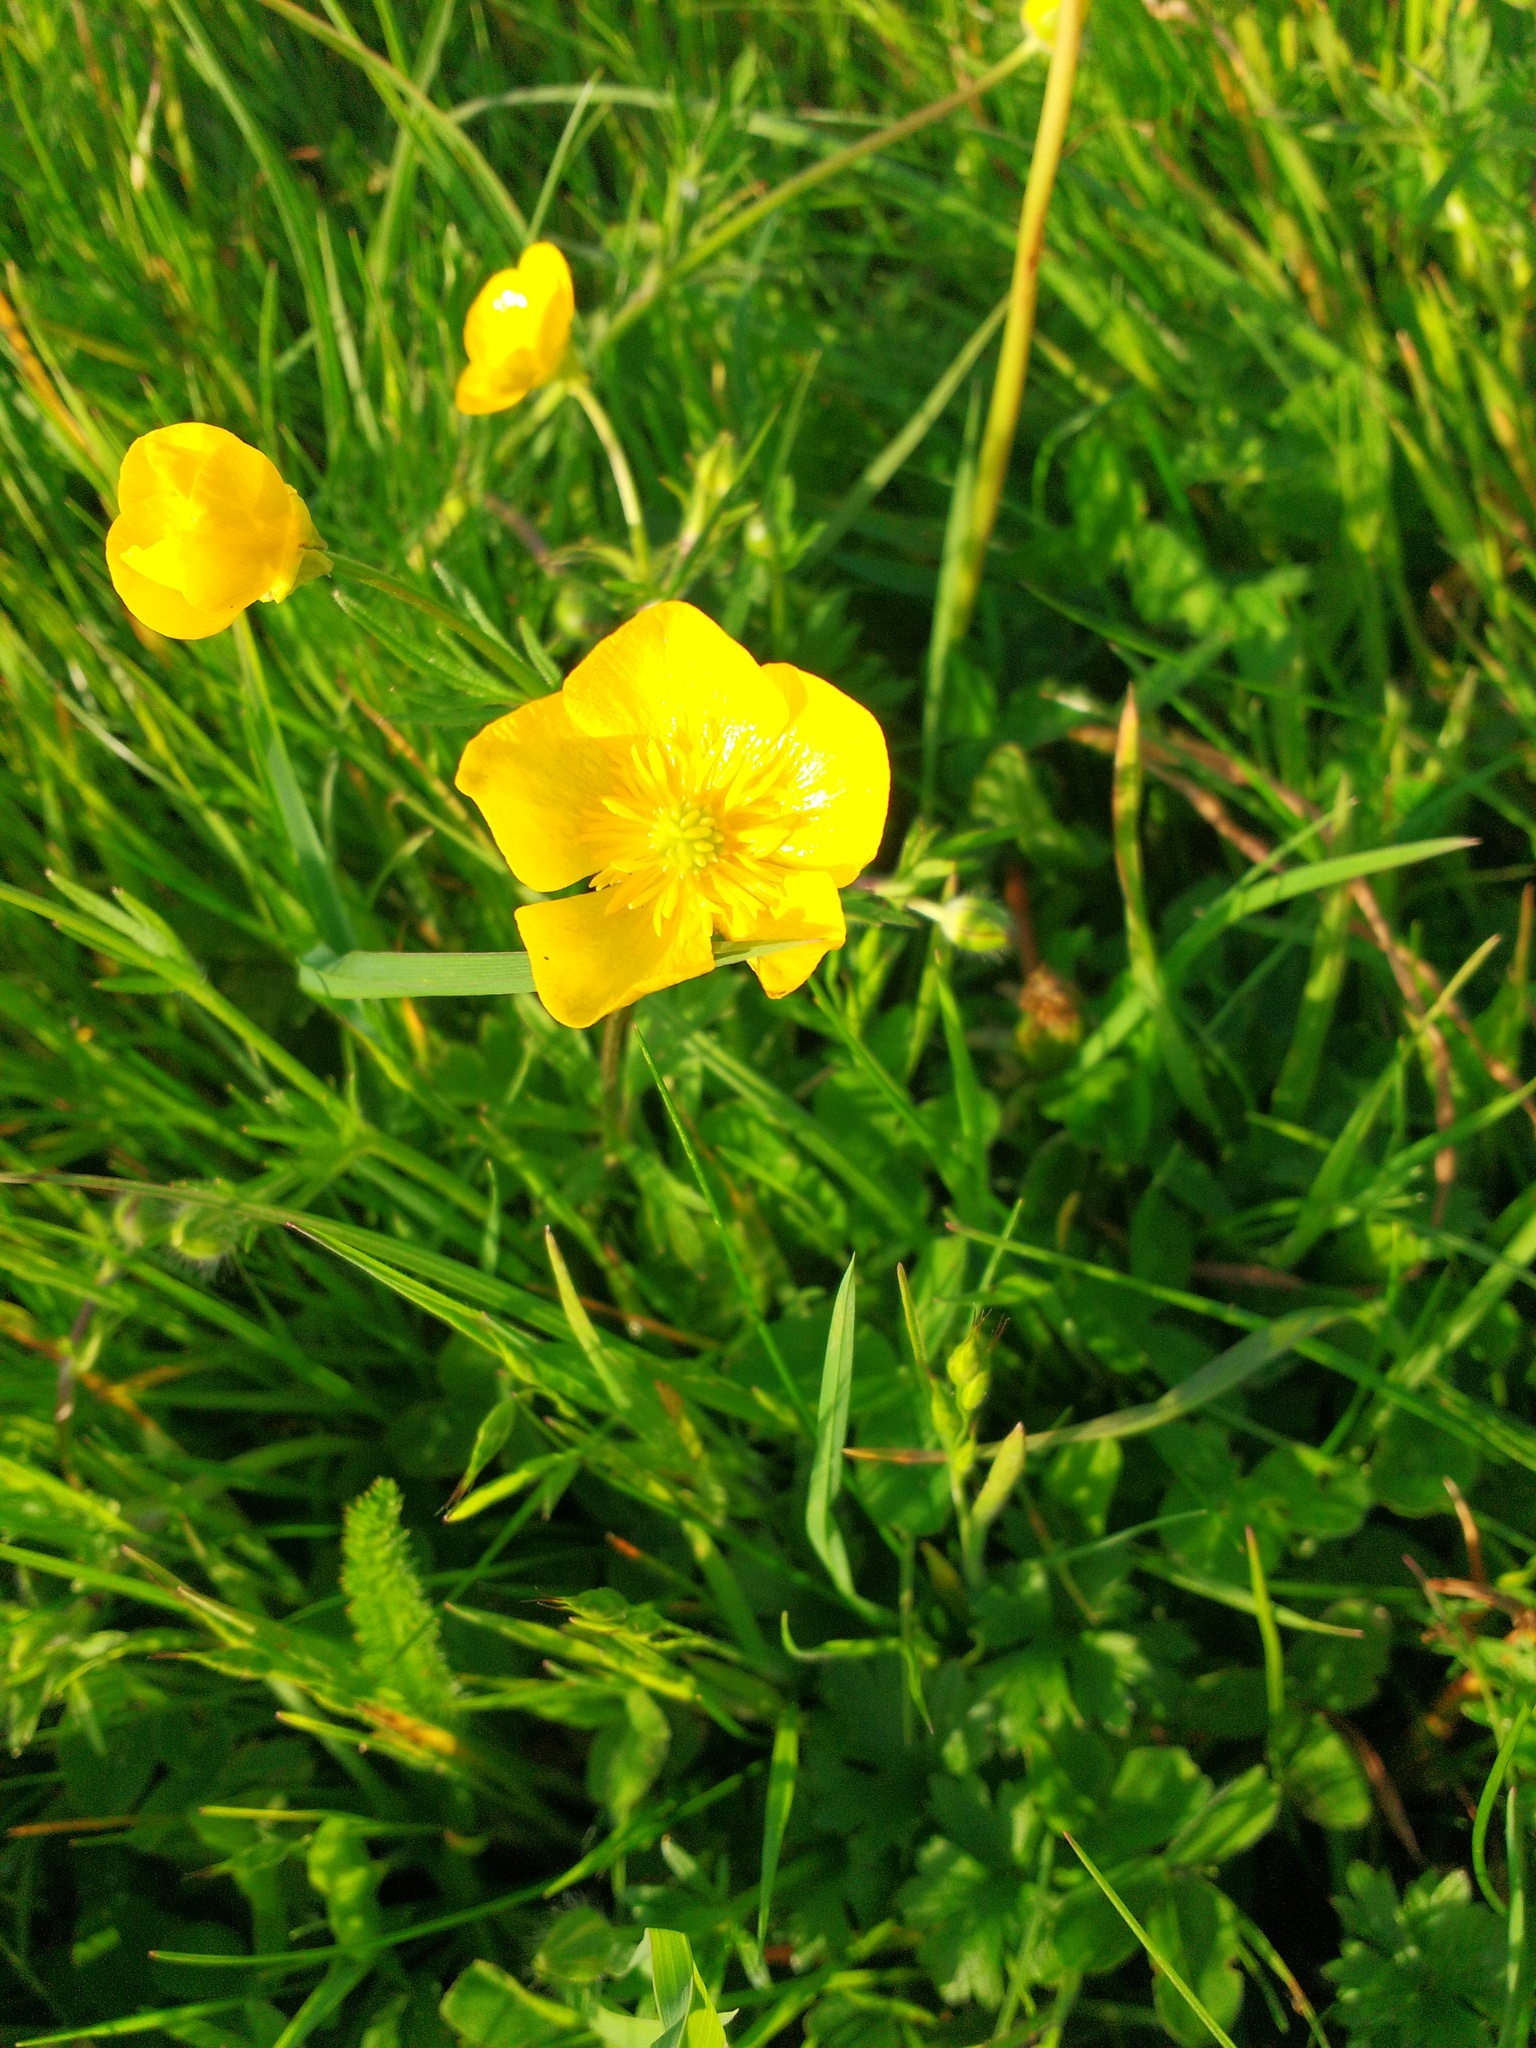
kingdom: Plantae
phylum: Tracheophyta
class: Magnoliopsida
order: Ranunculales
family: Ranunculaceae
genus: Ranunculus
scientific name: Ranunculus bulbosus
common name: Bulbous buttercup
